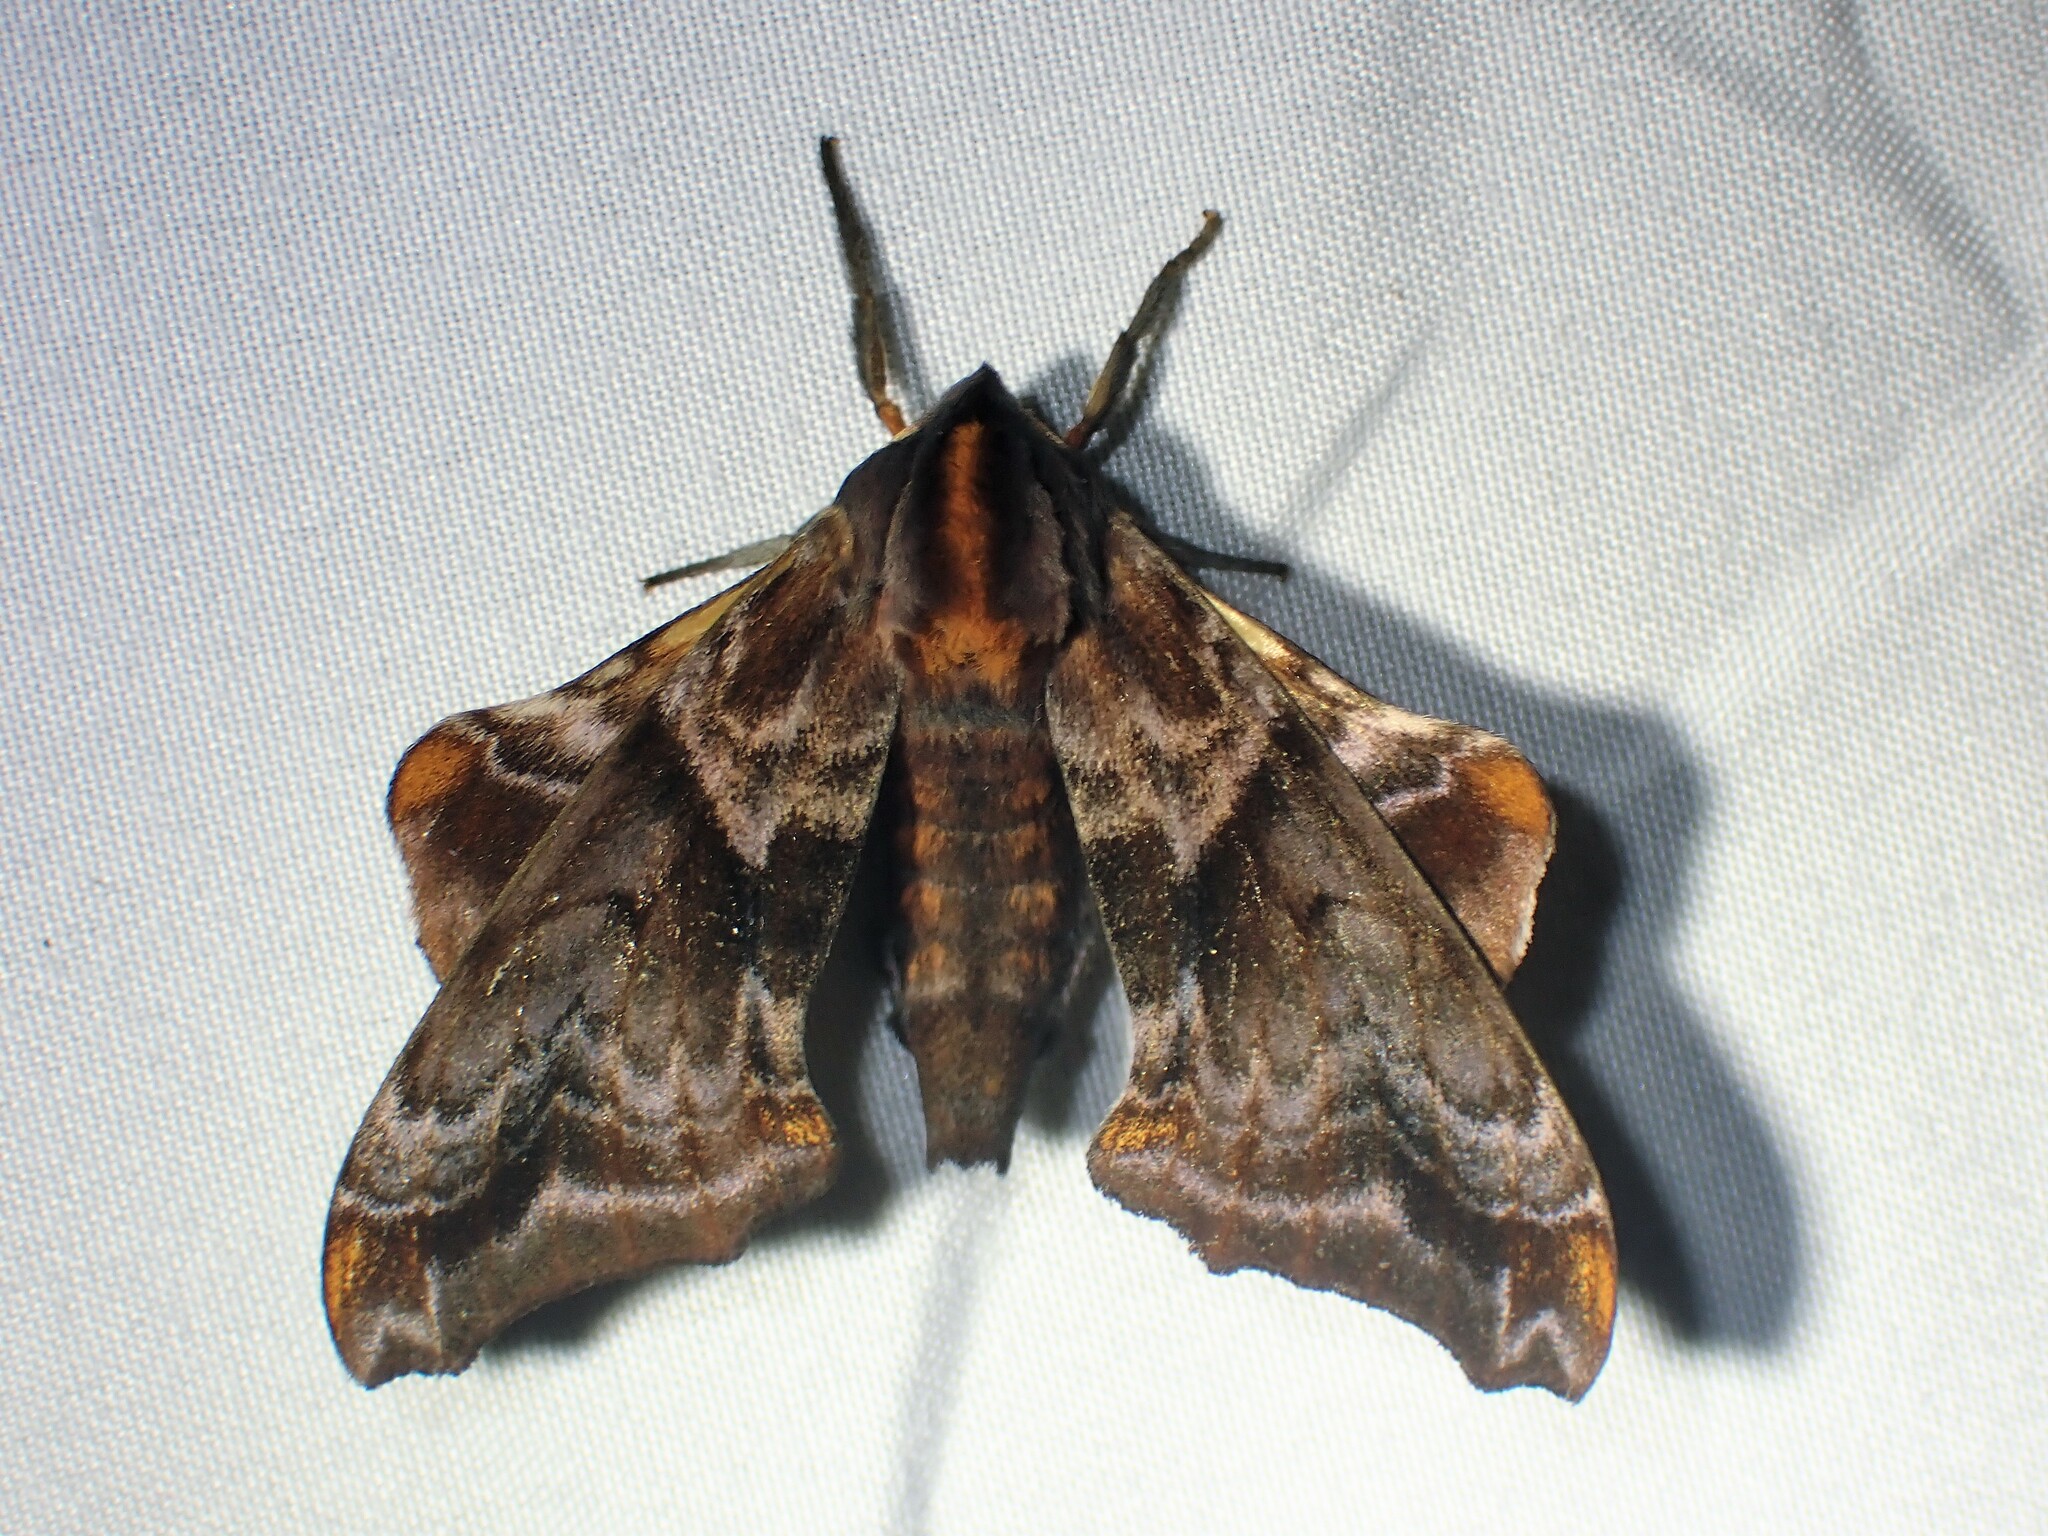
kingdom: Animalia
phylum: Arthropoda
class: Insecta
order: Lepidoptera
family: Sphingidae
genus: Paonias
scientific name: Paonias myops
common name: Small-eyed sphinx
